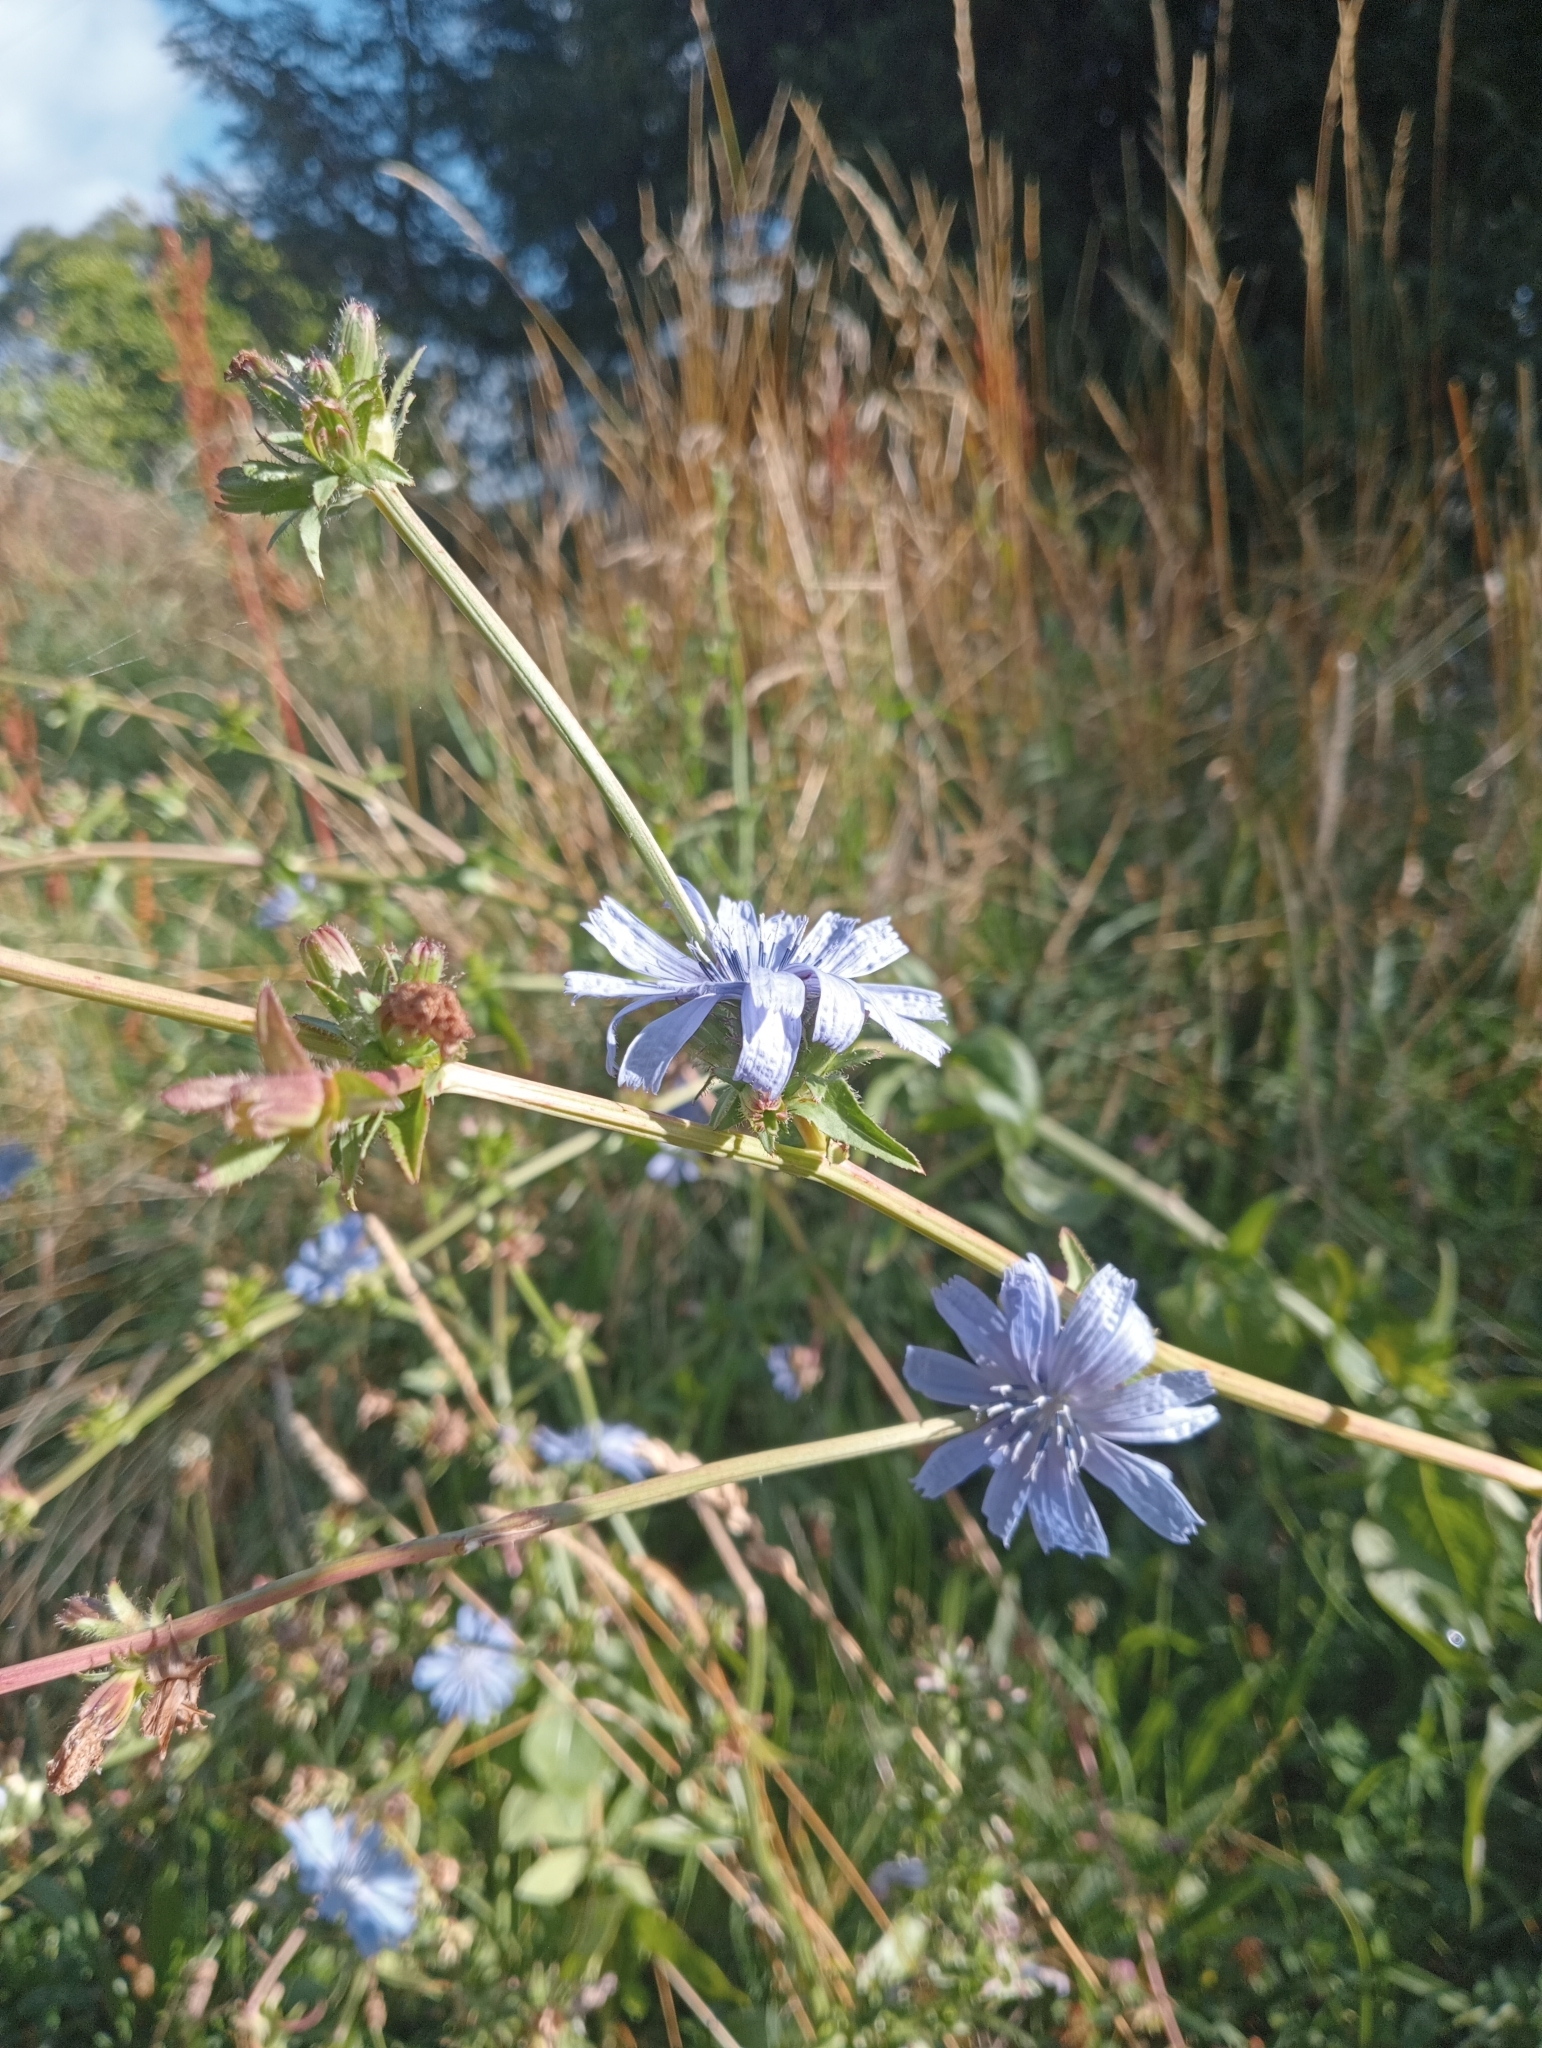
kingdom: Plantae
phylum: Tracheophyta
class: Magnoliopsida
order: Asterales
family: Asteraceae
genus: Cichorium
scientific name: Cichorium intybus
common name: Chicory
